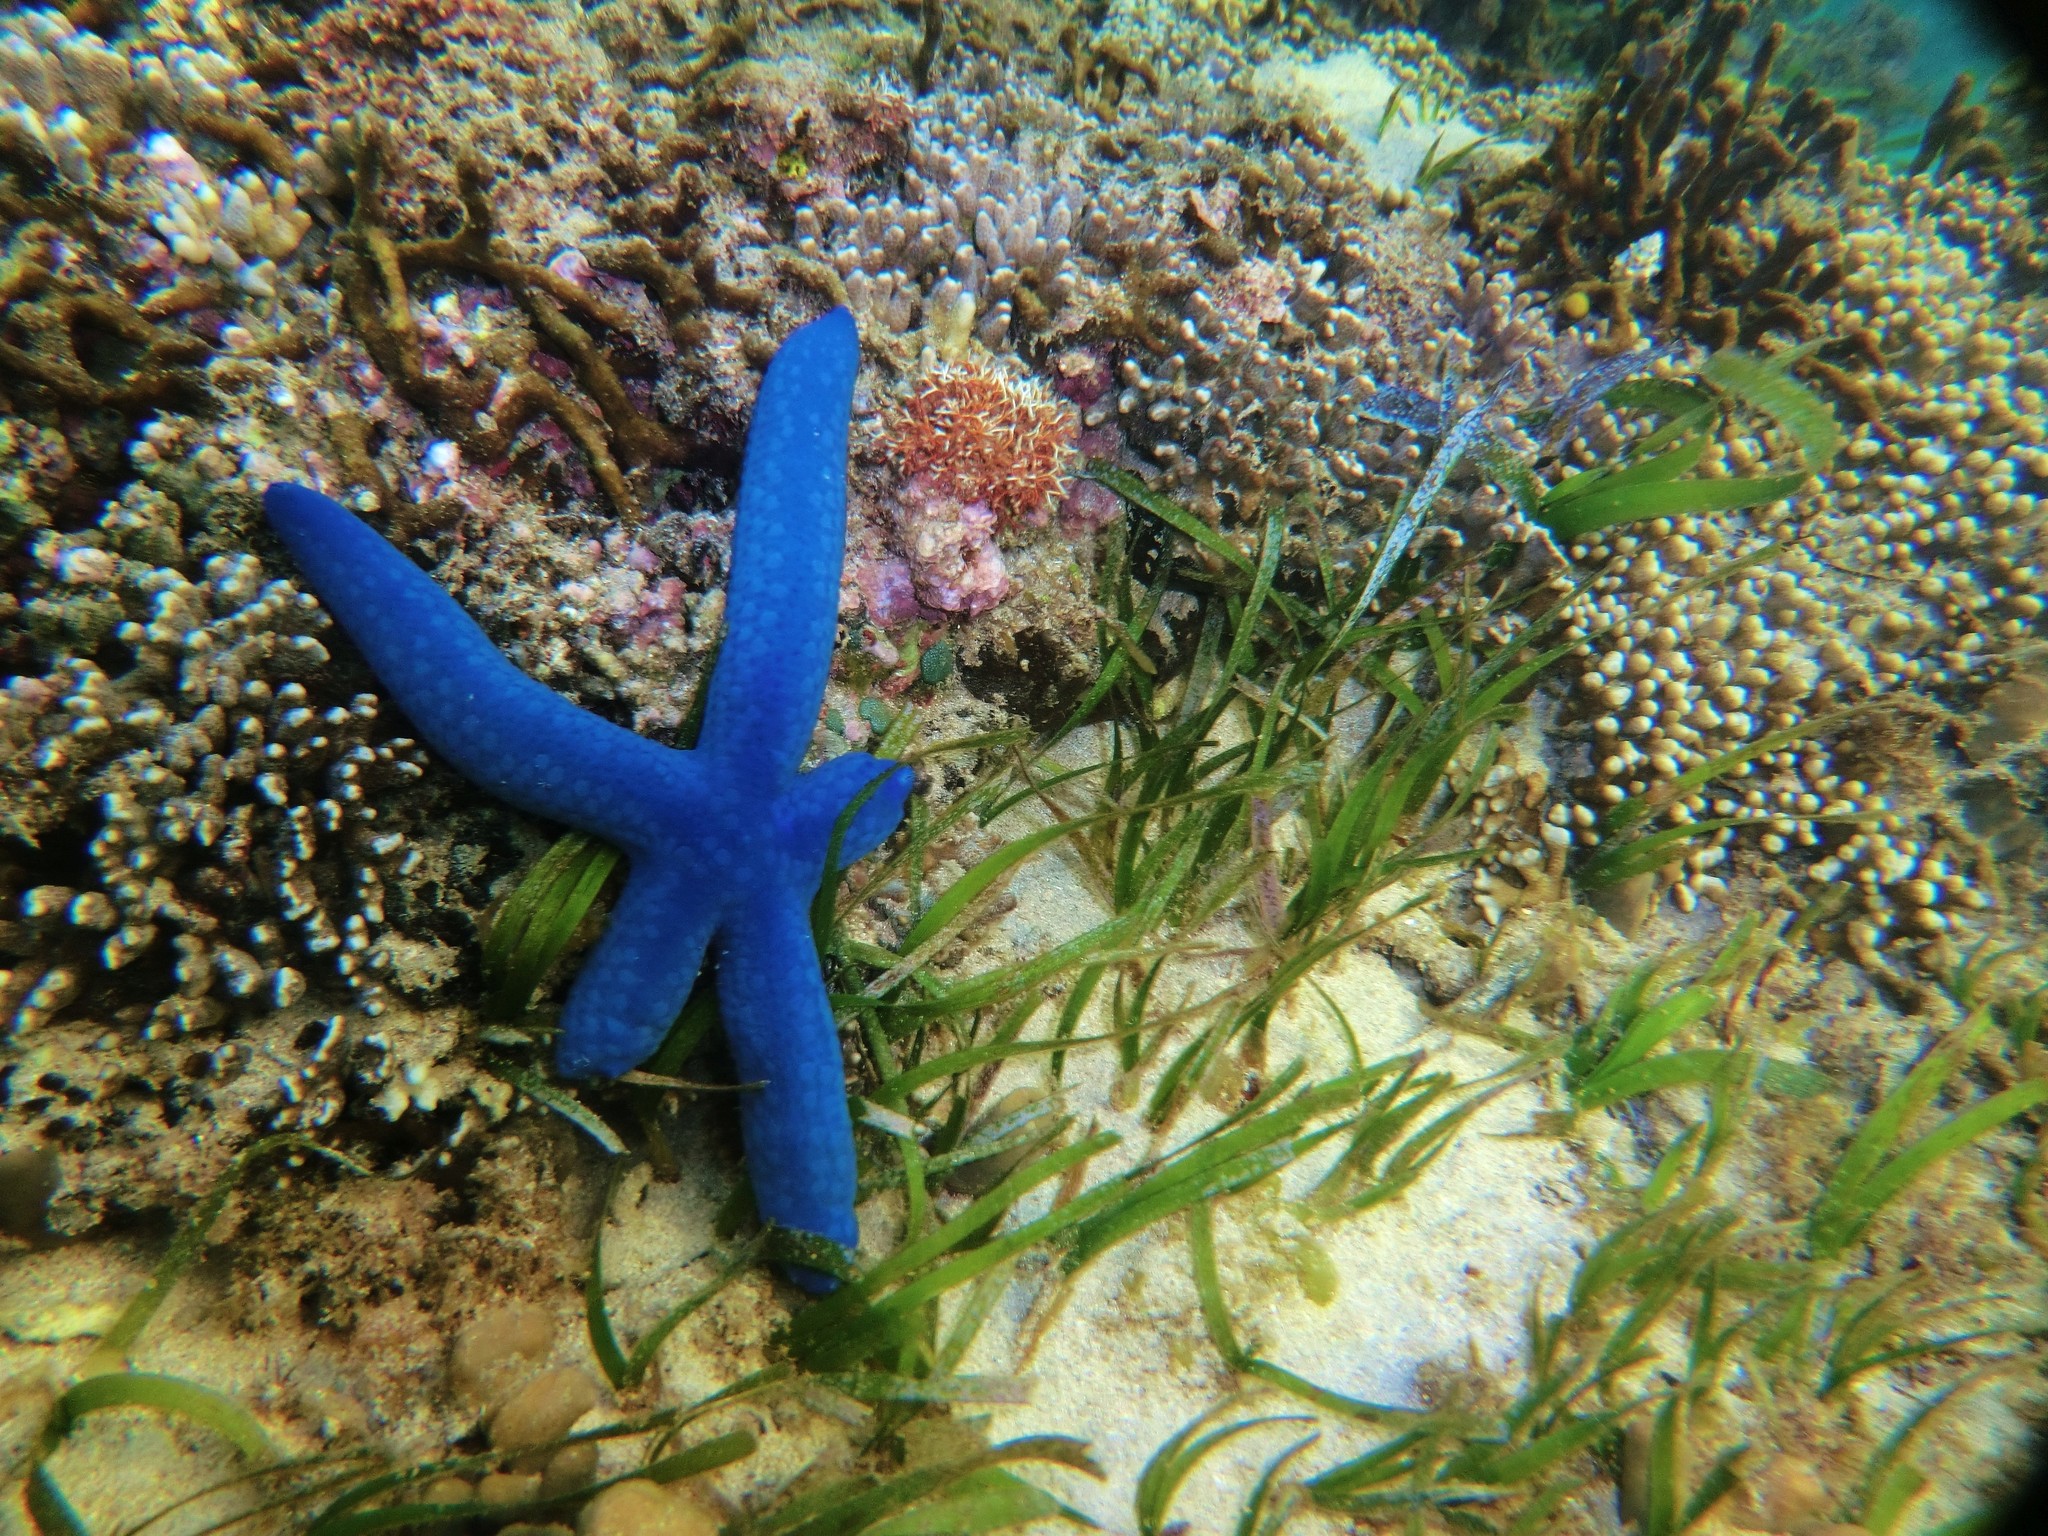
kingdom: Animalia
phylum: Echinodermata
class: Asteroidea
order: Valvatida
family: Ophidiasteridae
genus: Linckia
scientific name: Linckia laevigata
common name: Azure sea star
